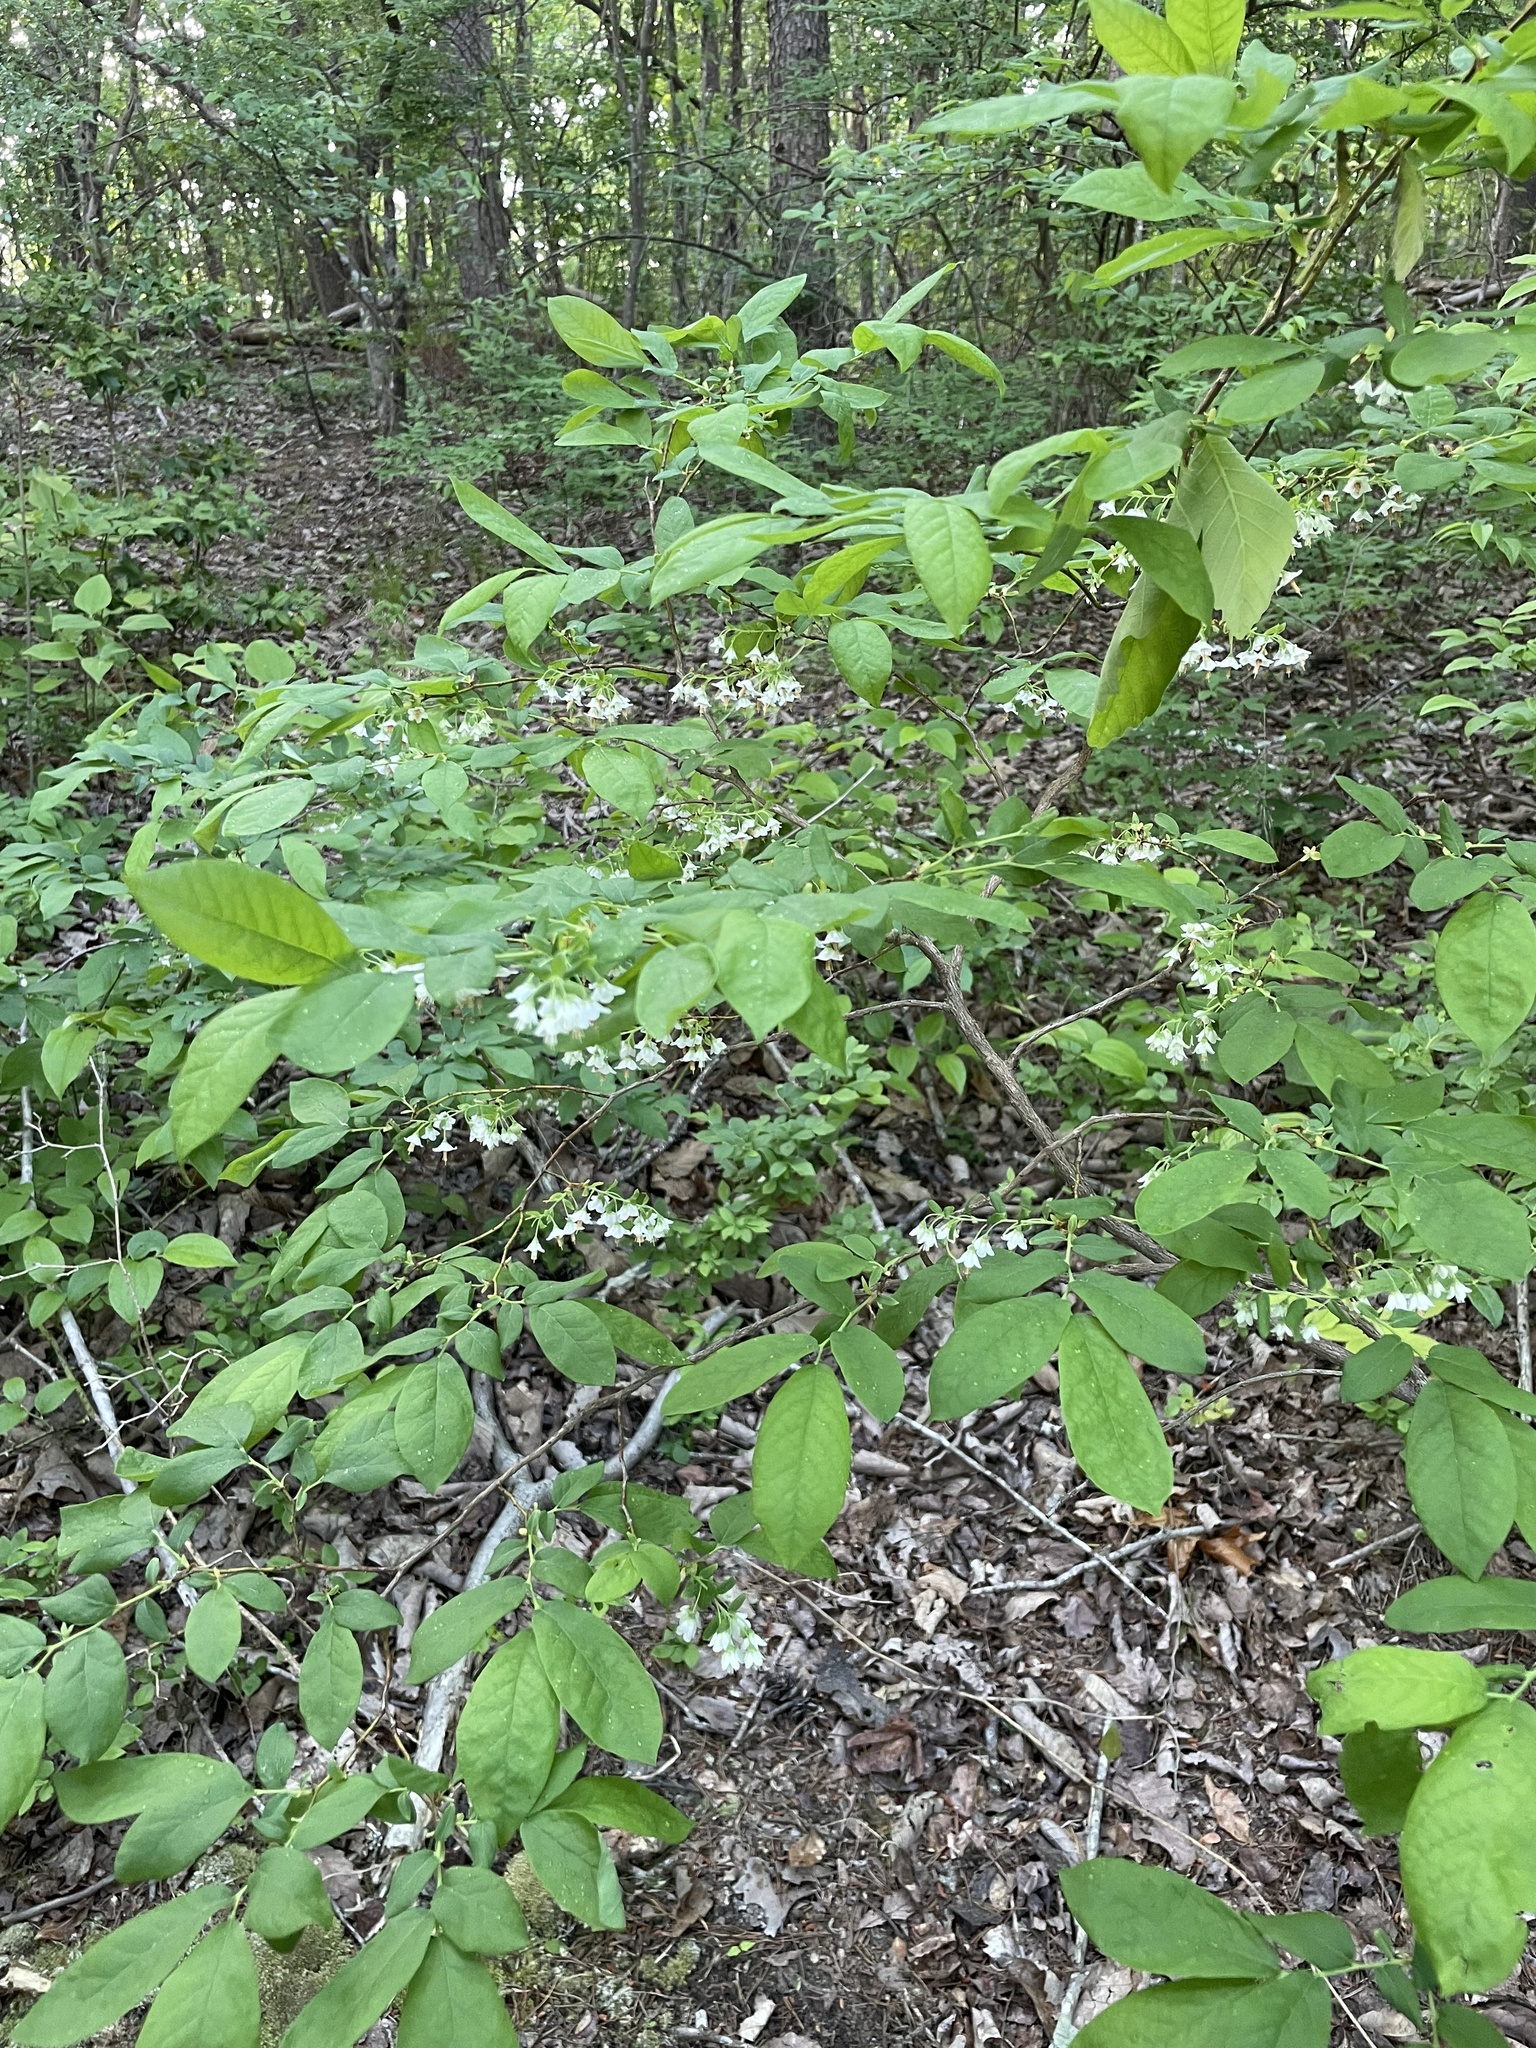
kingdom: Plantae
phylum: Tracheophyta
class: Magnoliopsida
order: Ericales
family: Ericaceae
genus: Vaccinium
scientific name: Vaccinium stamineum
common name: Deerberry
